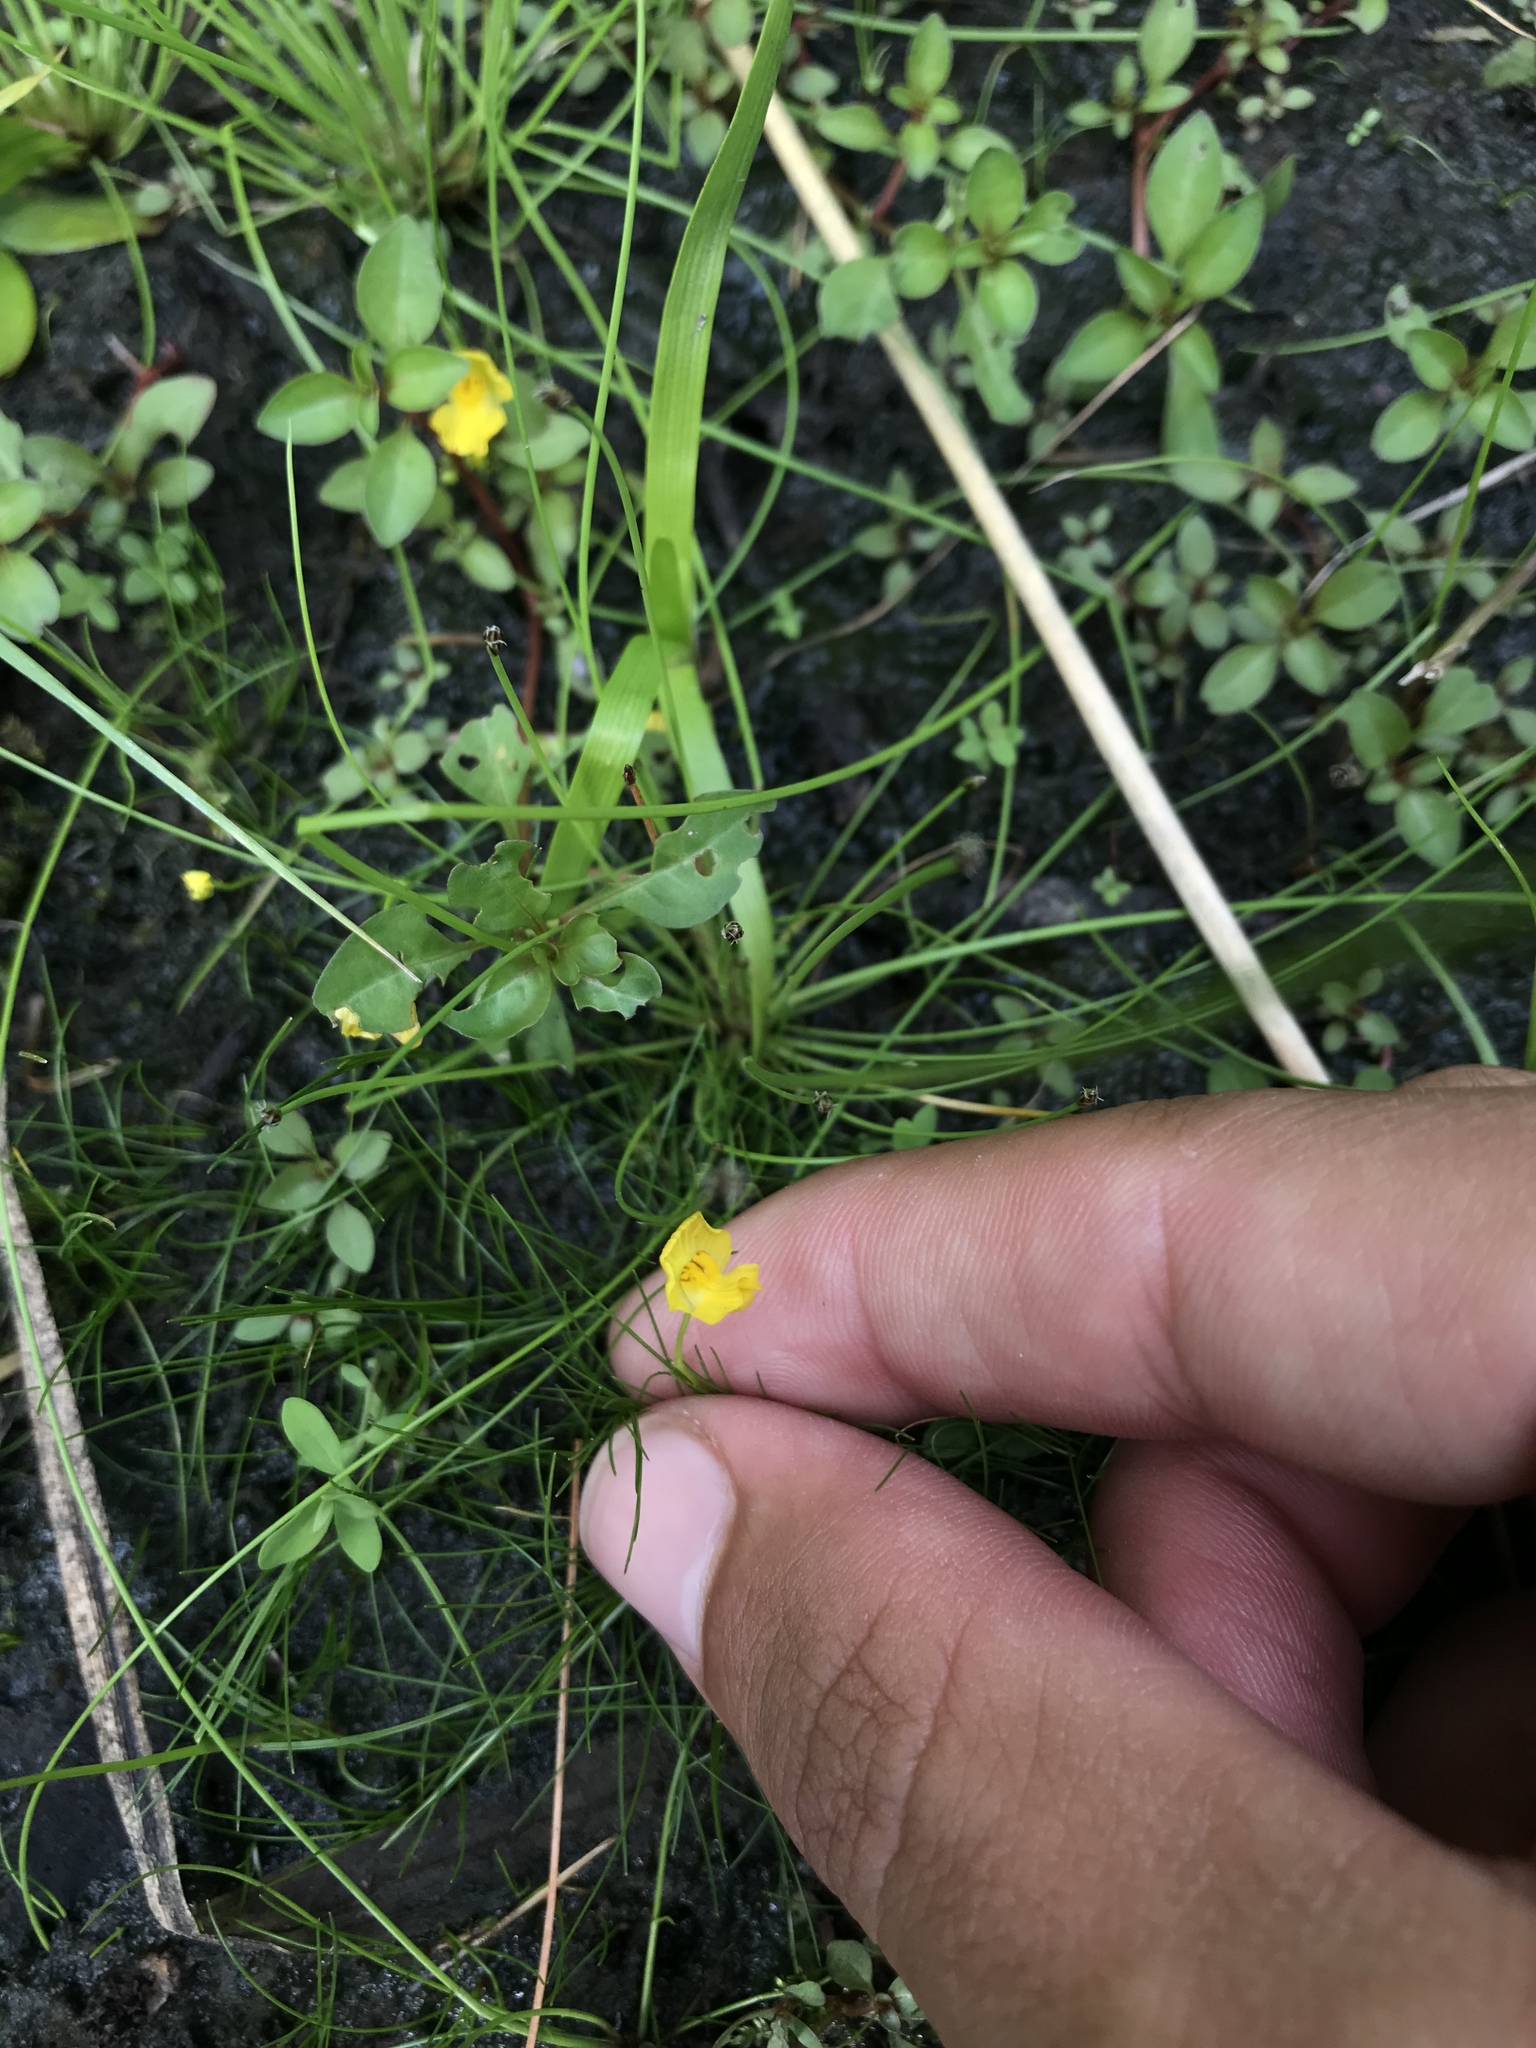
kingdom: Plantae
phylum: Tracheophyta
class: Magnoliopsida
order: Lamiales
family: Lentibulariaceae
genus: Utricularia
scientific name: Utricularia gibba
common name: Humped bladderwort
